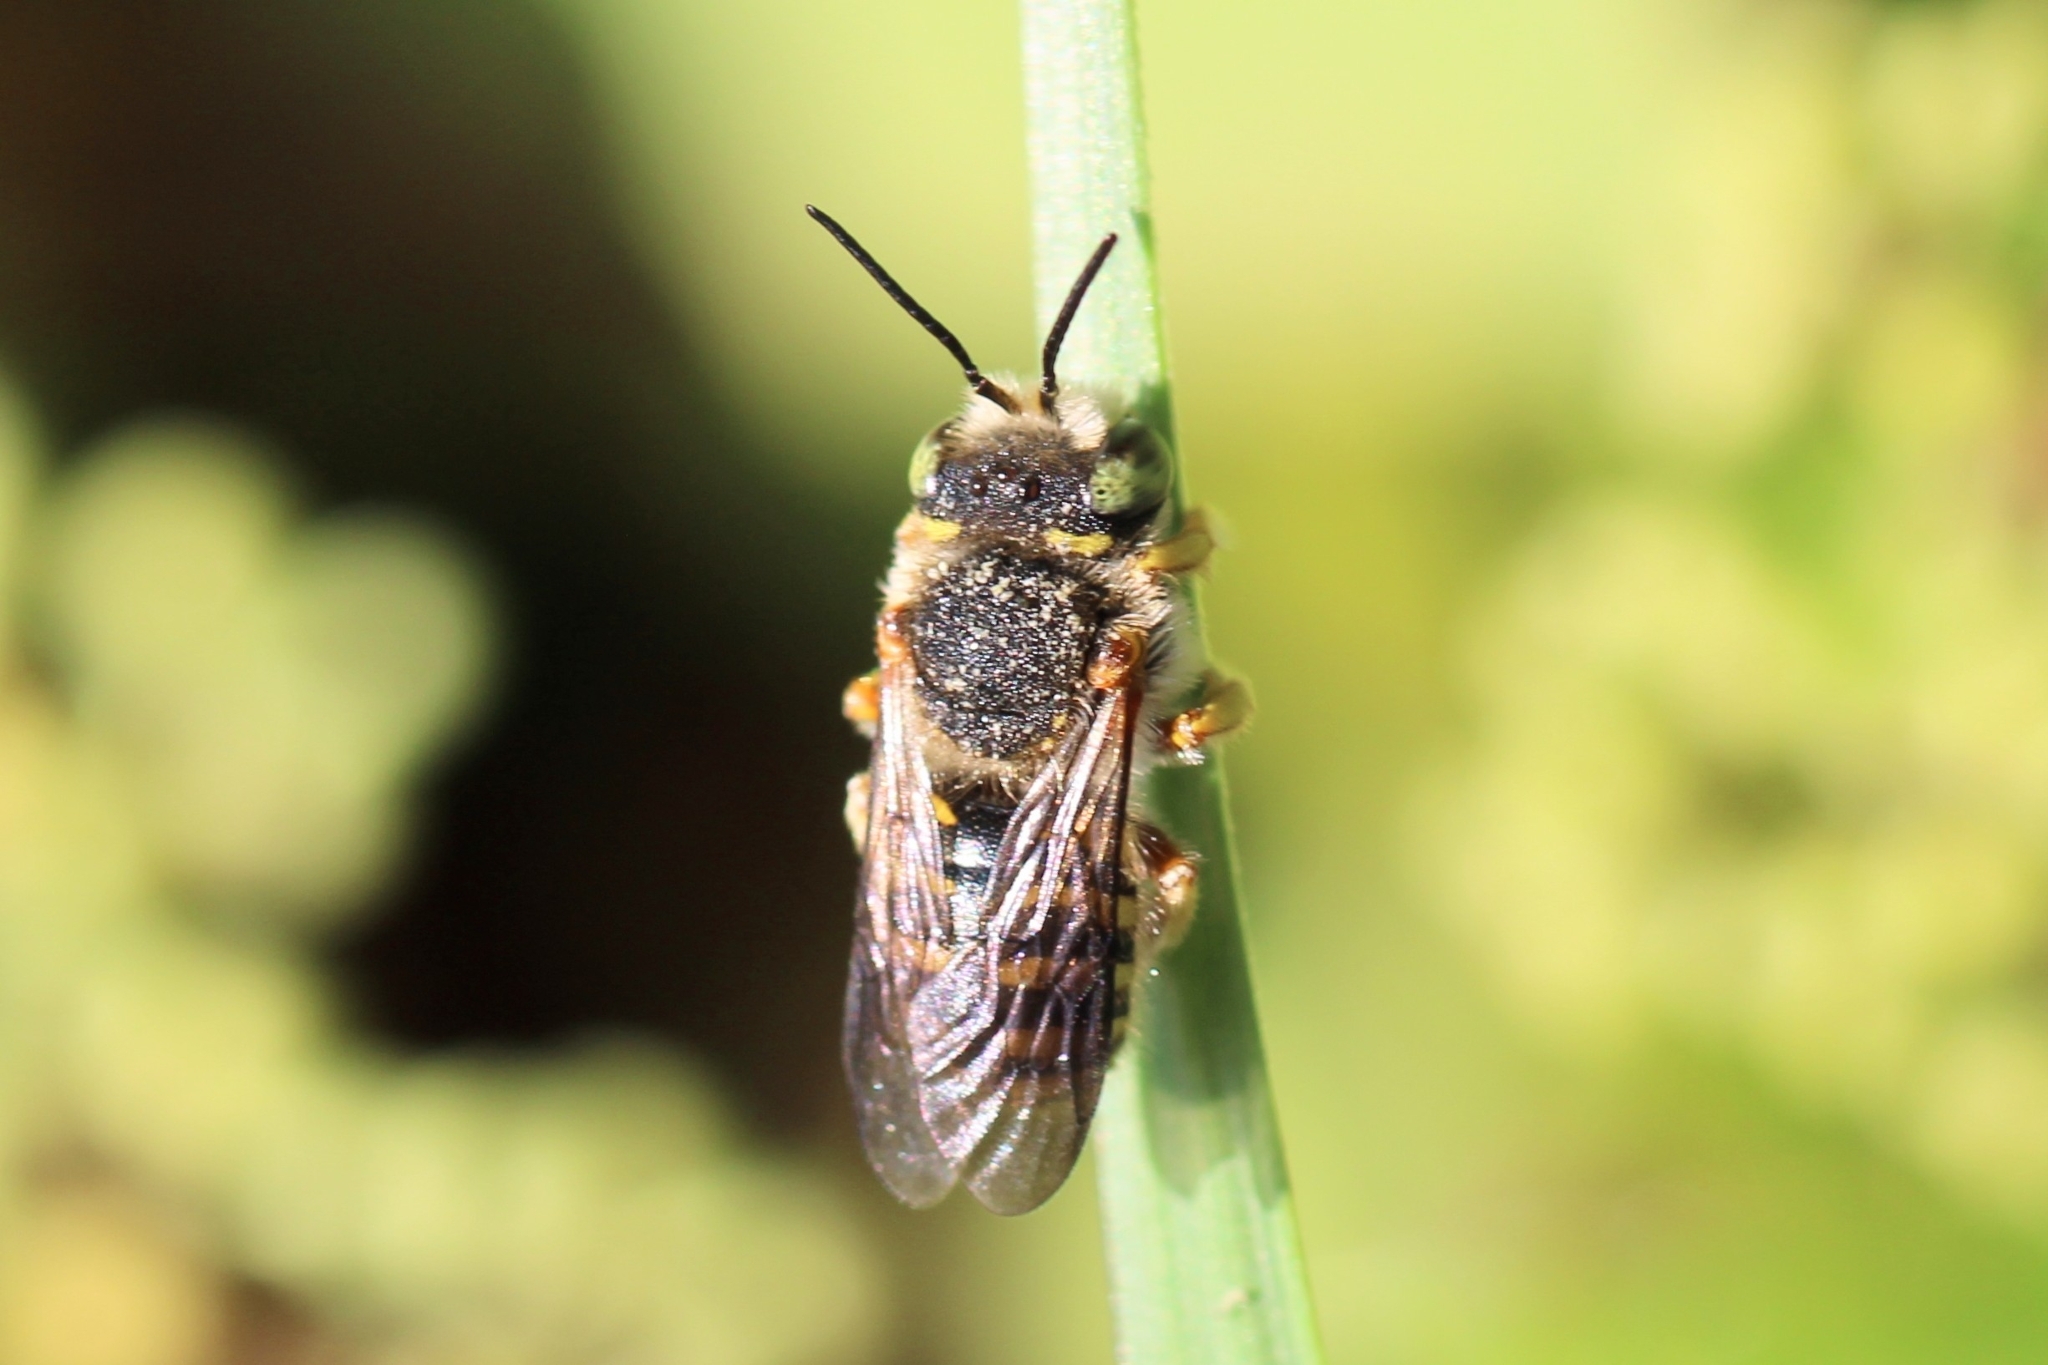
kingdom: Animalia
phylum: Arthropoda
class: Insecta
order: Hymenoptera
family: Megachilidae
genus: Anthidium
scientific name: Anthidium oblongatum
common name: Oblong wool carder bee
